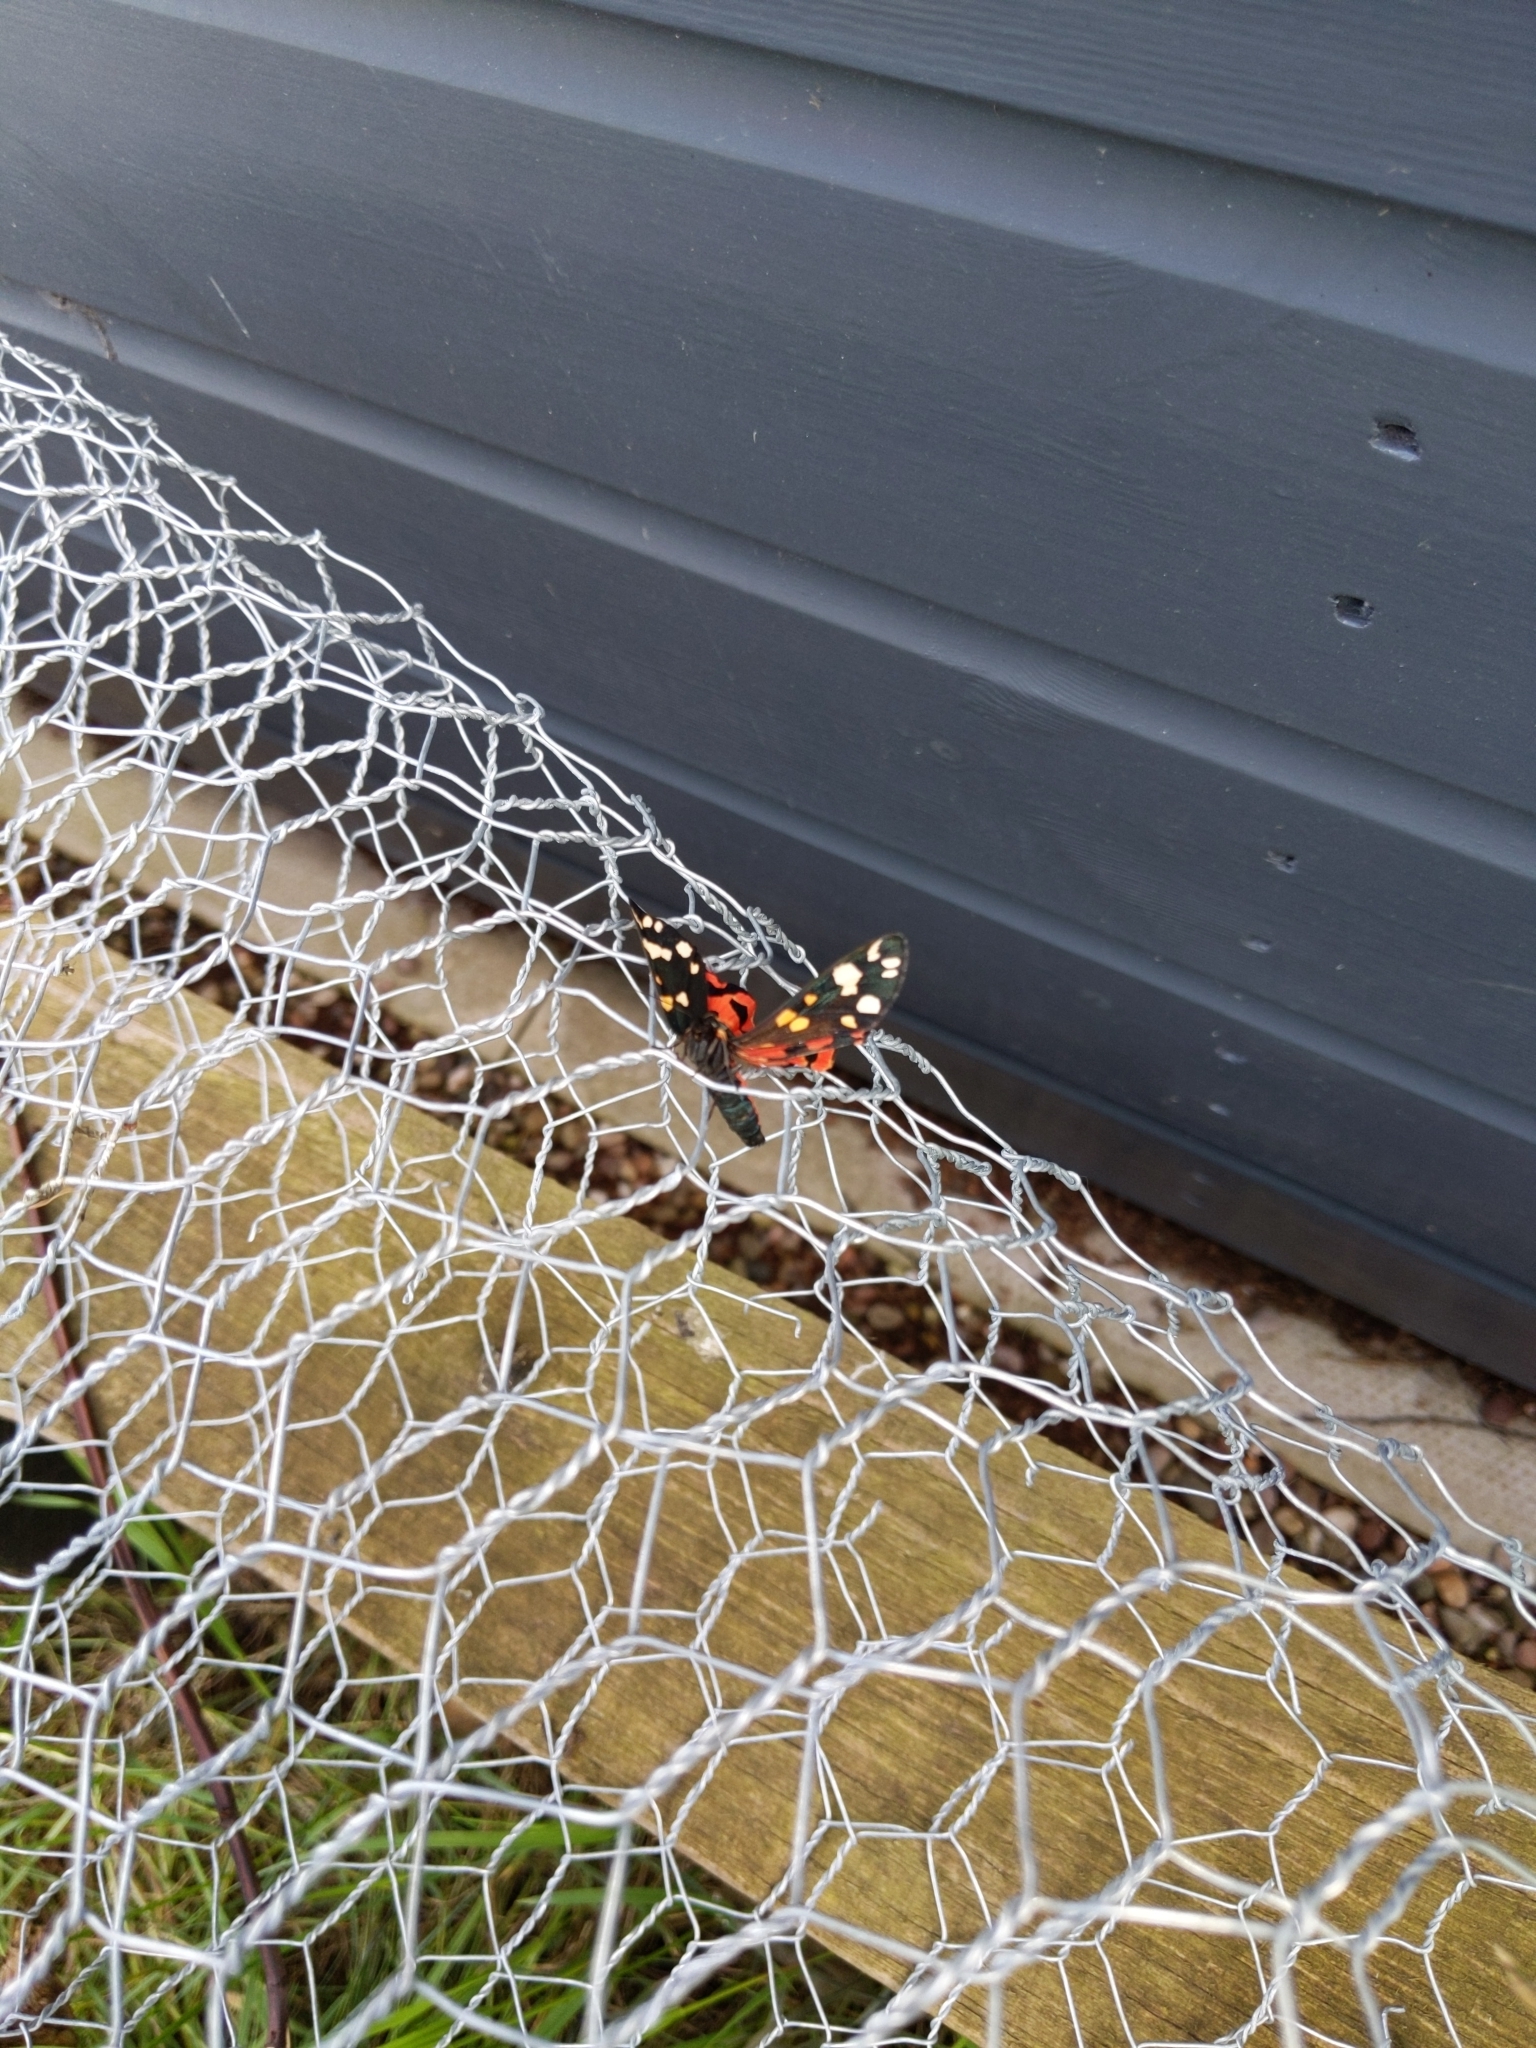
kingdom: Animalia
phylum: Arthropoda
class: Insecta
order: Lepidoptera
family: Erebidae
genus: Callimorpha
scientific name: Callimorpha dominula
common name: Scarlet tiger
